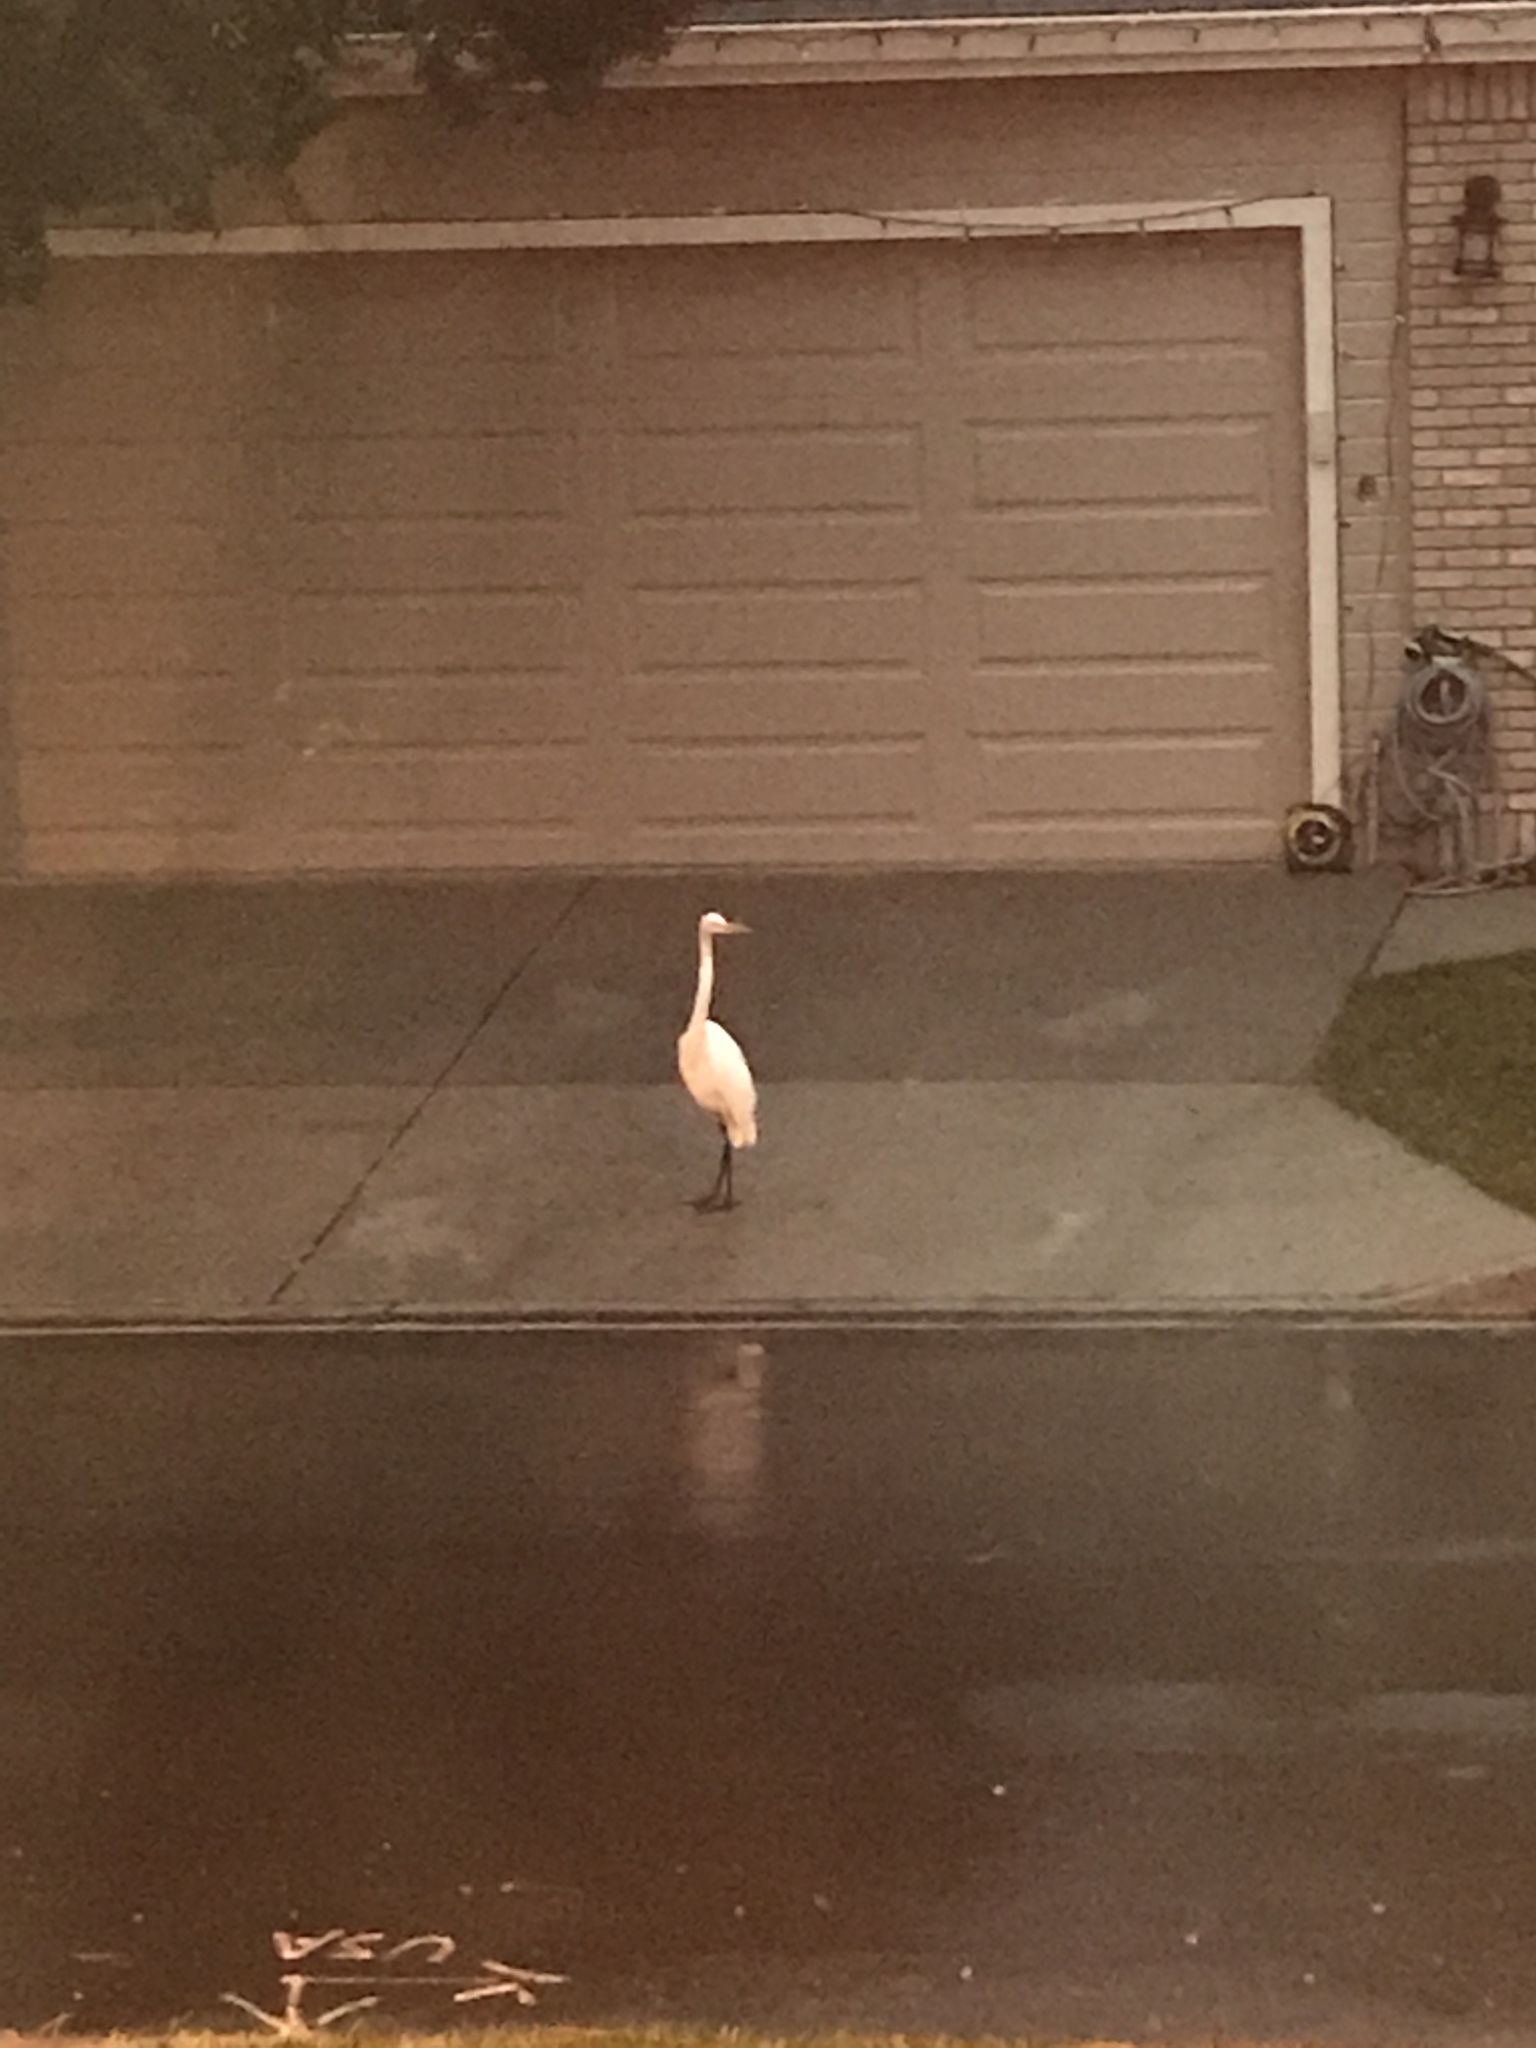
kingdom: Animalia
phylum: Chordata
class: Aves
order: Pelecaniformes
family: Ardeidae
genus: Ardea
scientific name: Ardea alba
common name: Great egret
